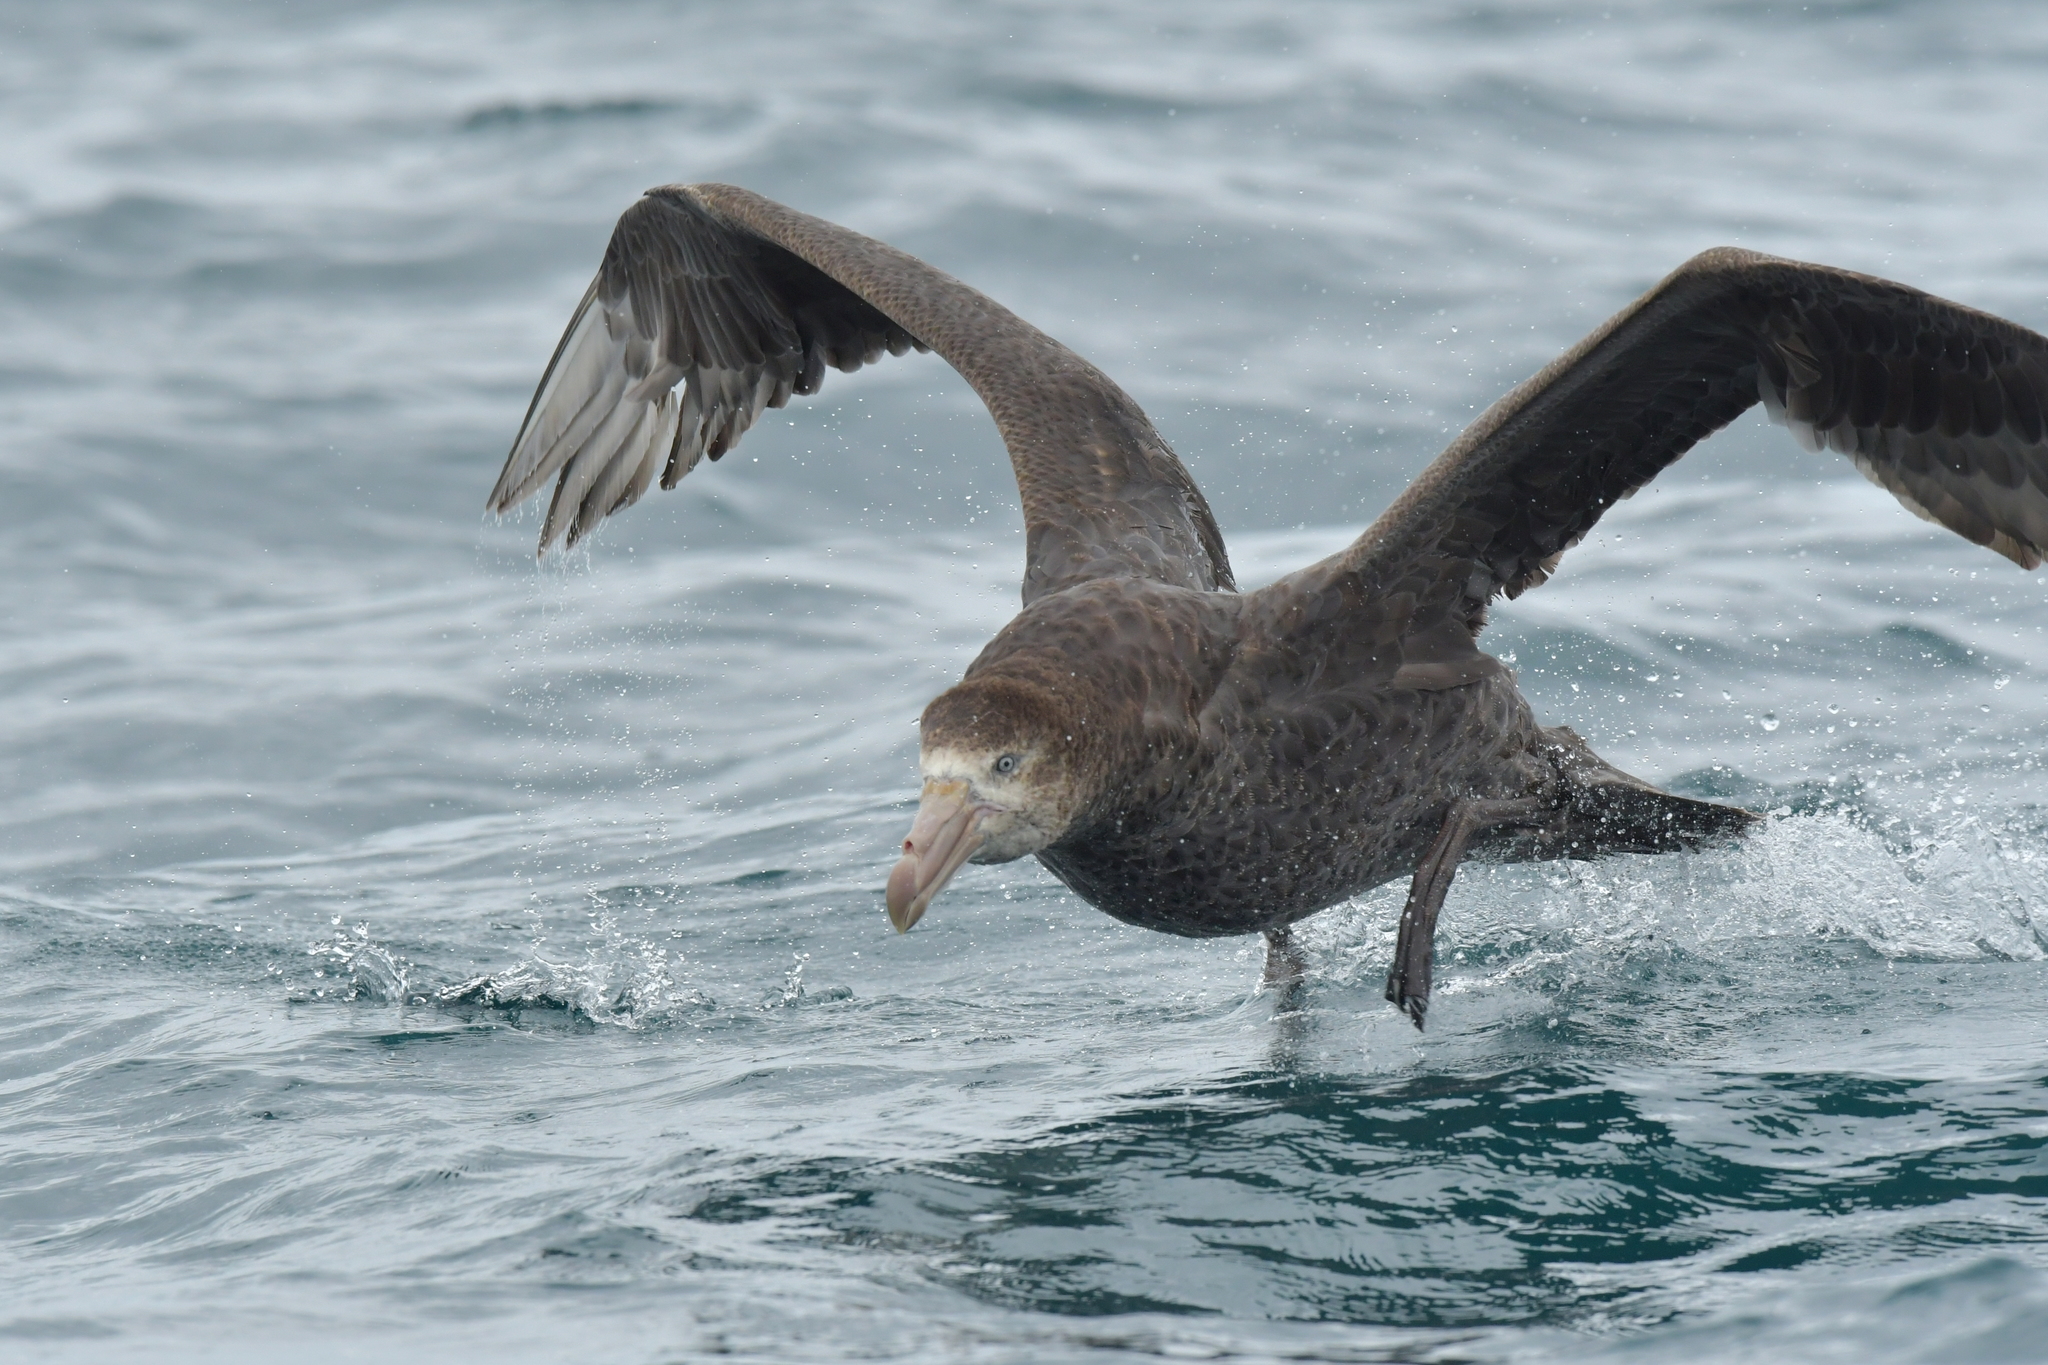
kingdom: Animalia
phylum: Chordata
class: Aves
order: Procellariiformes
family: Procellariidae
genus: Macronectes
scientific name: Macronectes halli
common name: Northern giant petrel
